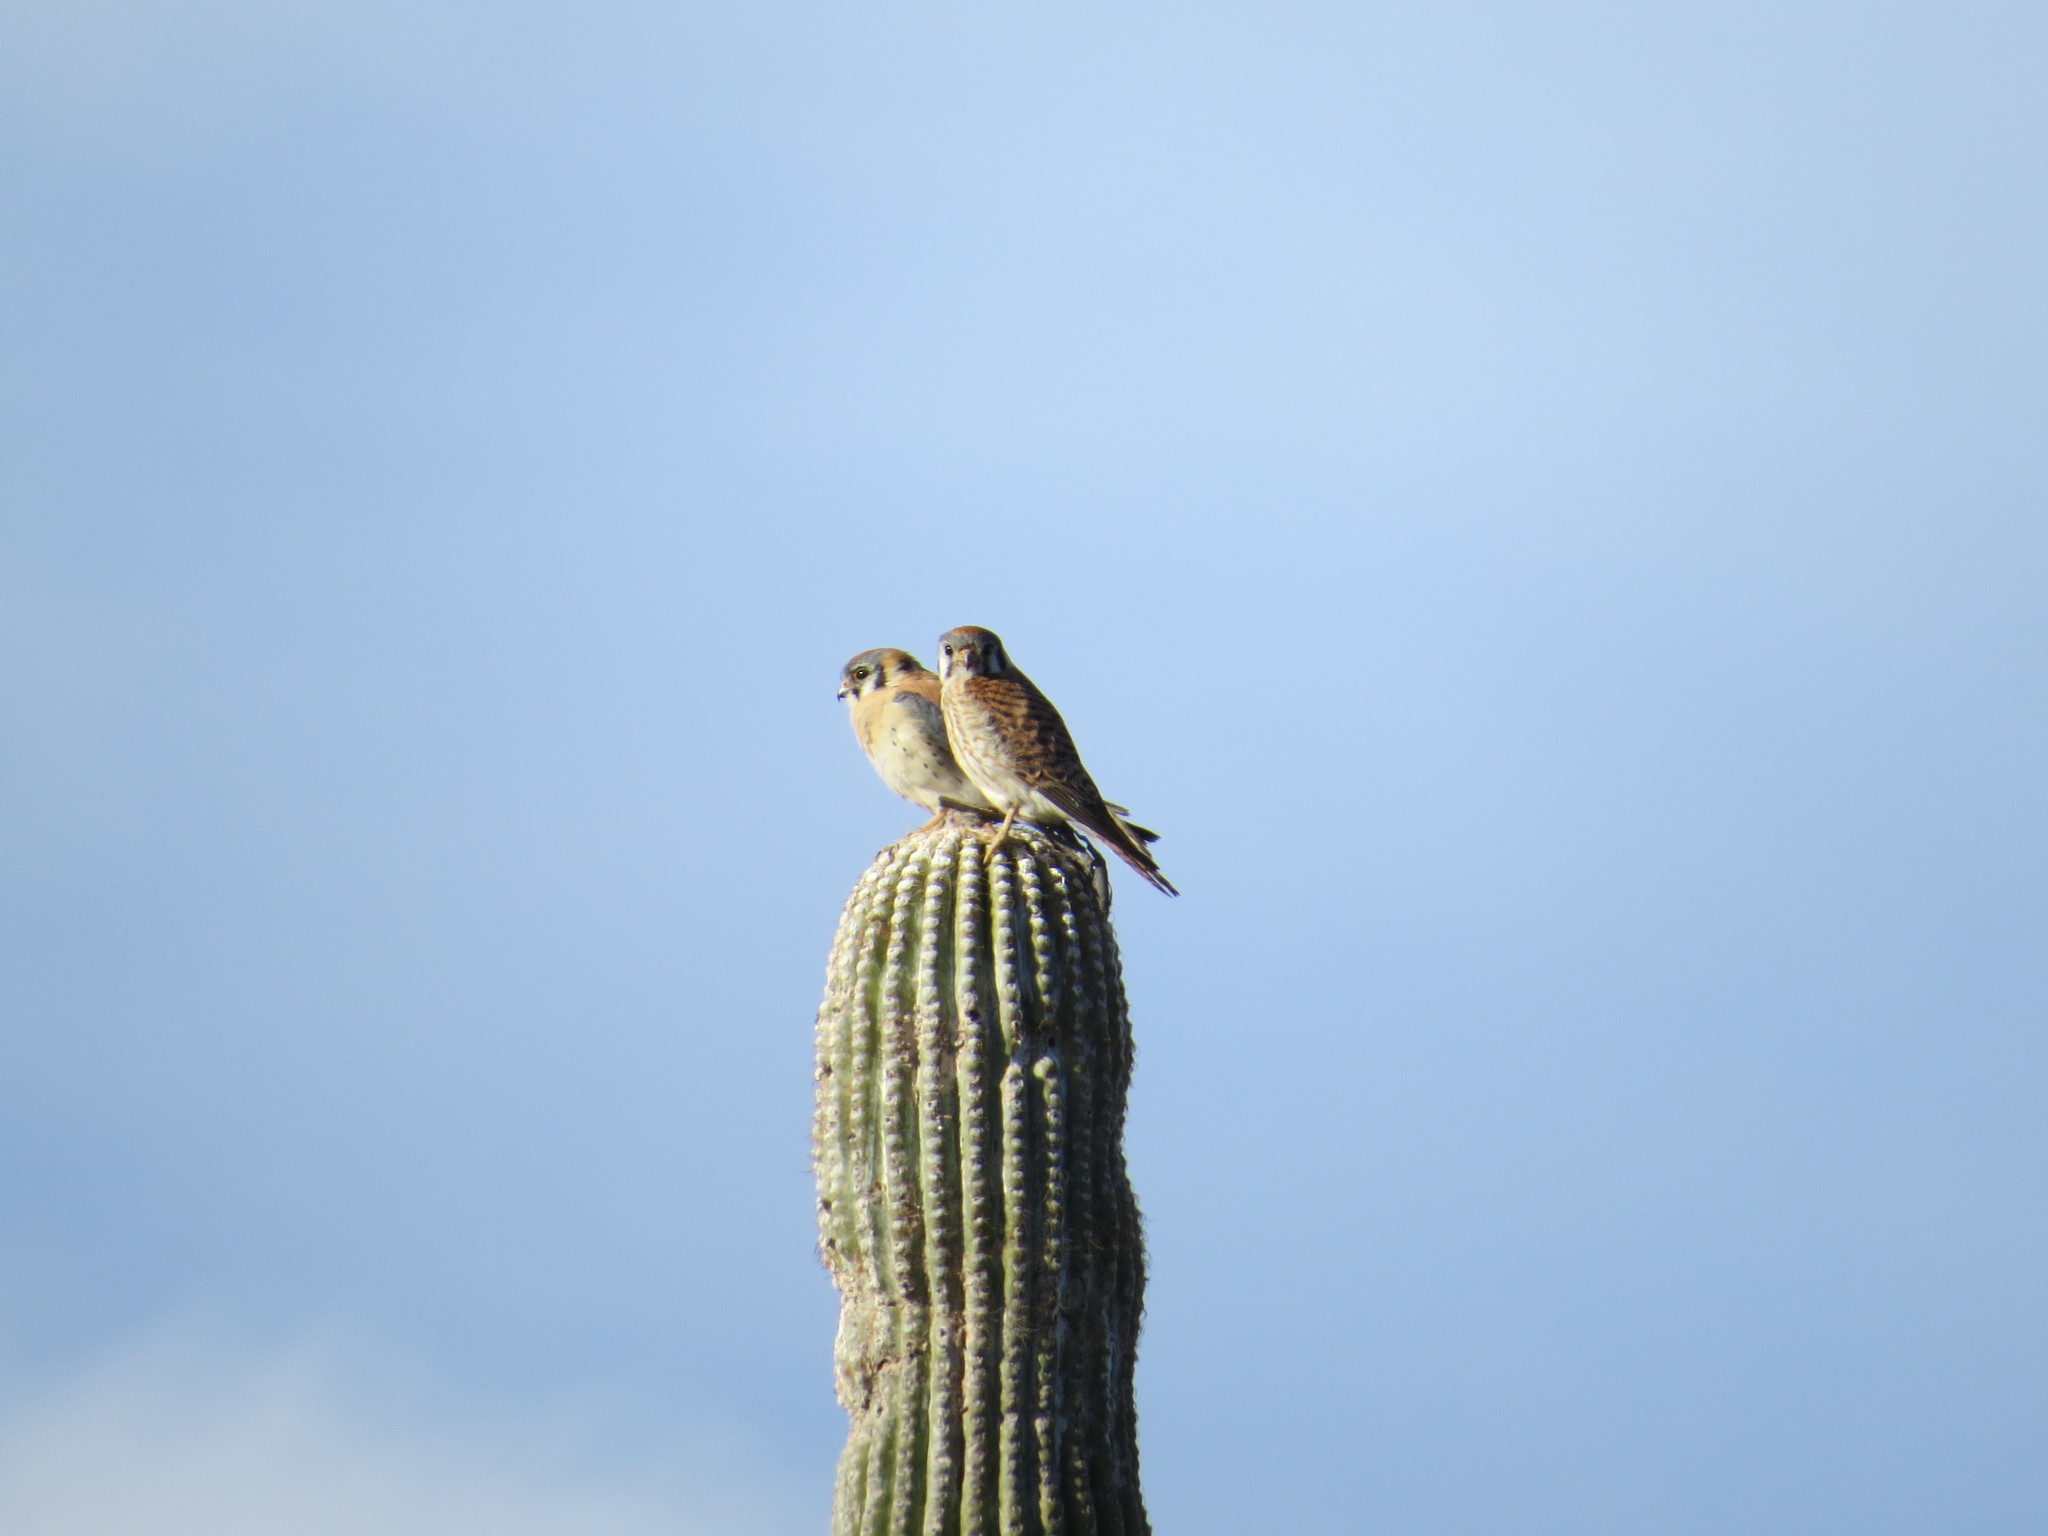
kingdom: Animalia
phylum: Chordata
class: Aves
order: Falconiformes
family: Falconidae
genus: Falco
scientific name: Falco sparverius
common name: American kestrel
